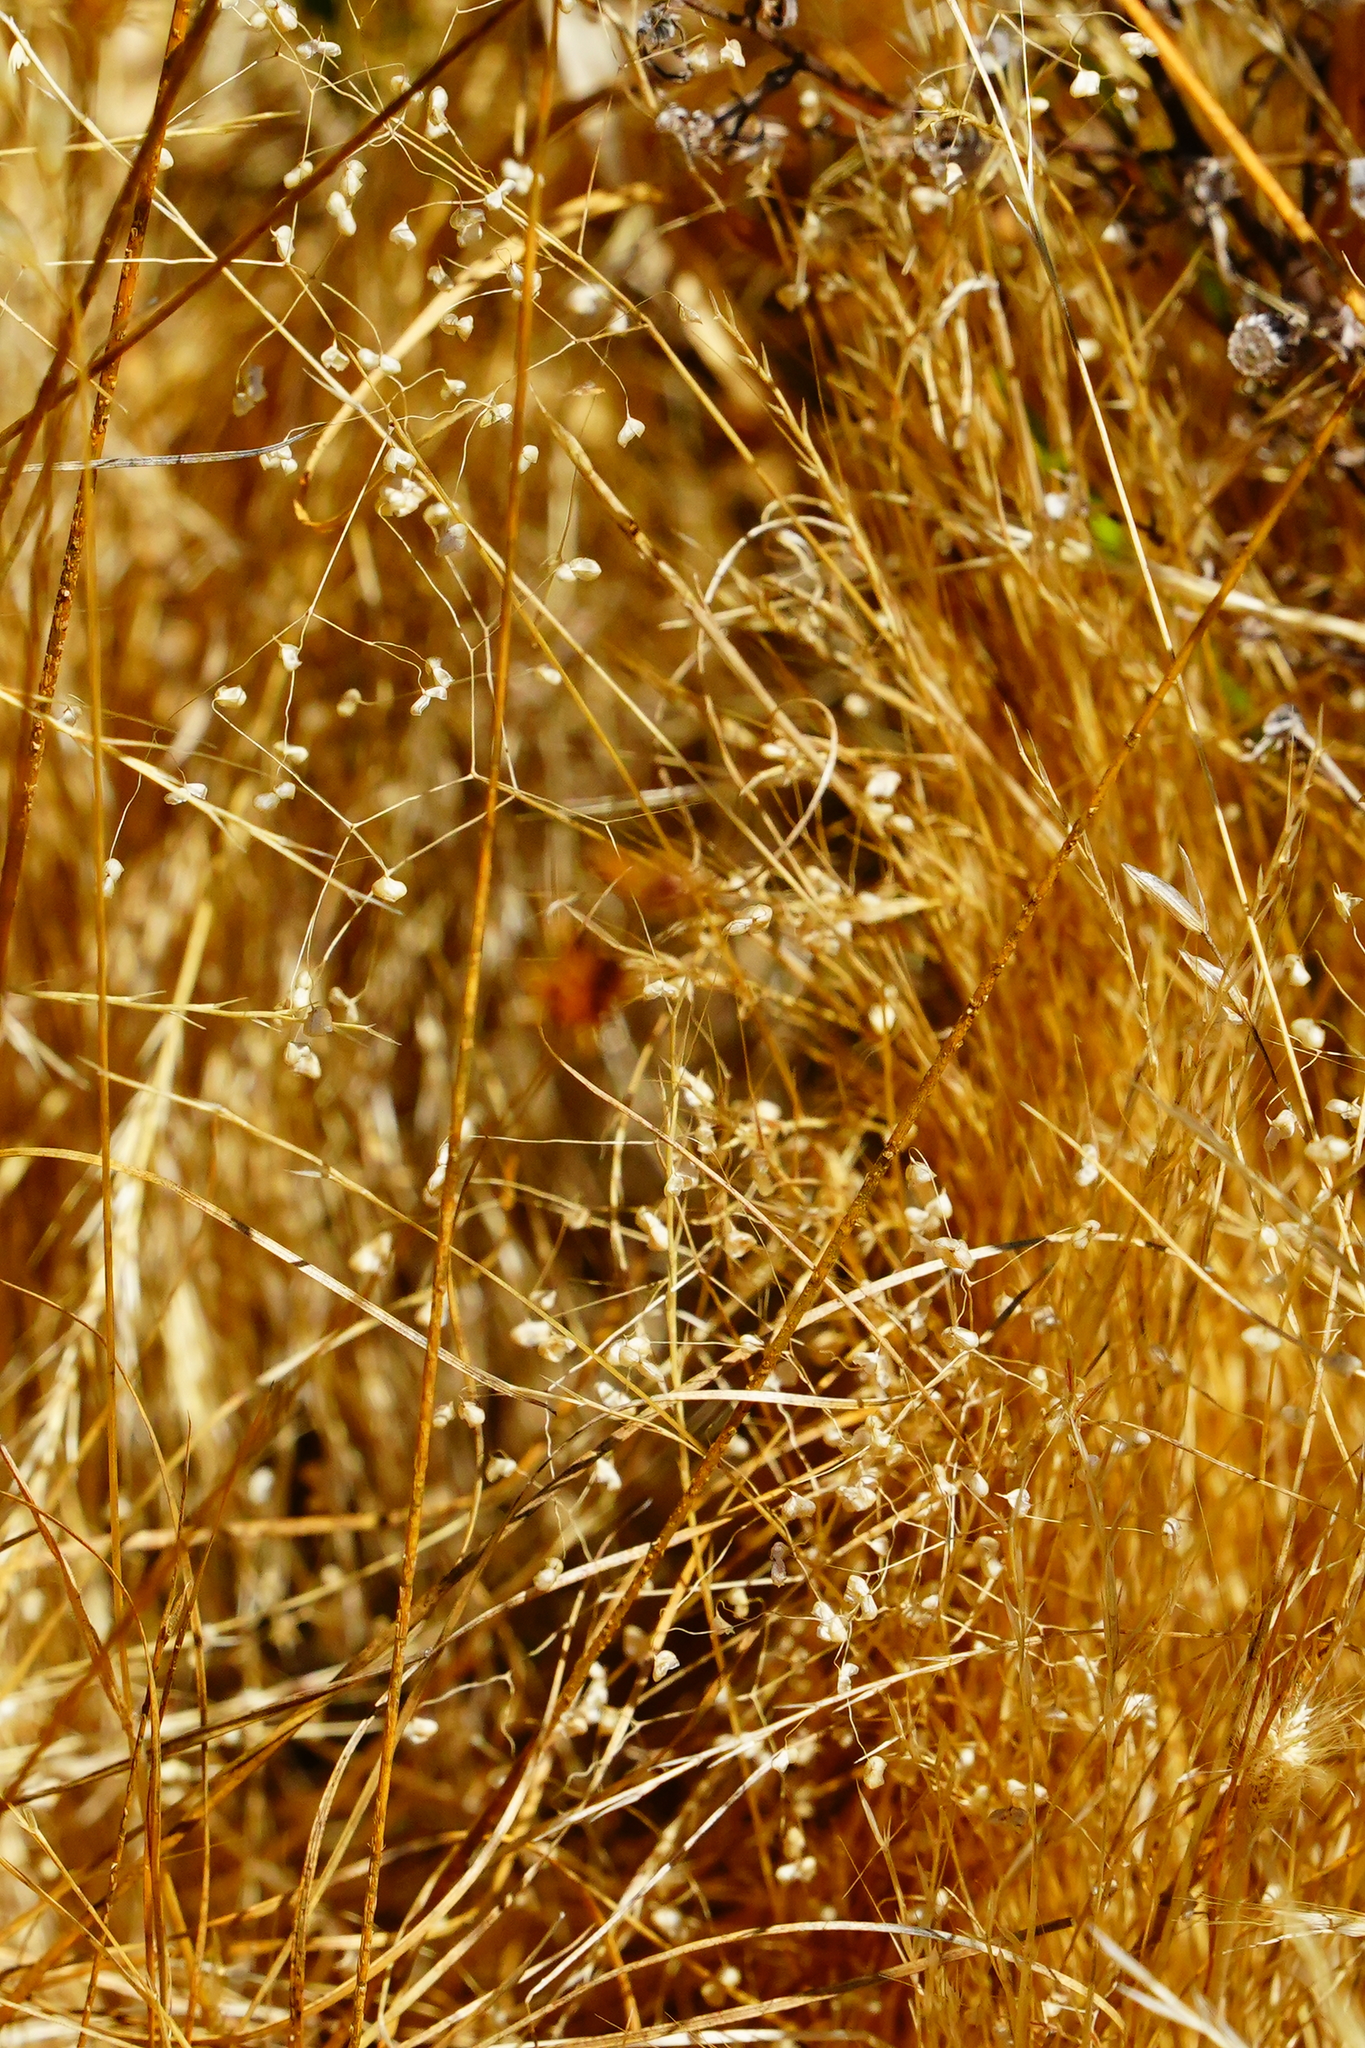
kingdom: Plantae
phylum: Tracheophyta
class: Liliopsida
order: Poales
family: Poaceae
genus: Briza
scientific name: Briza minor
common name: Lesser quaking-grass
